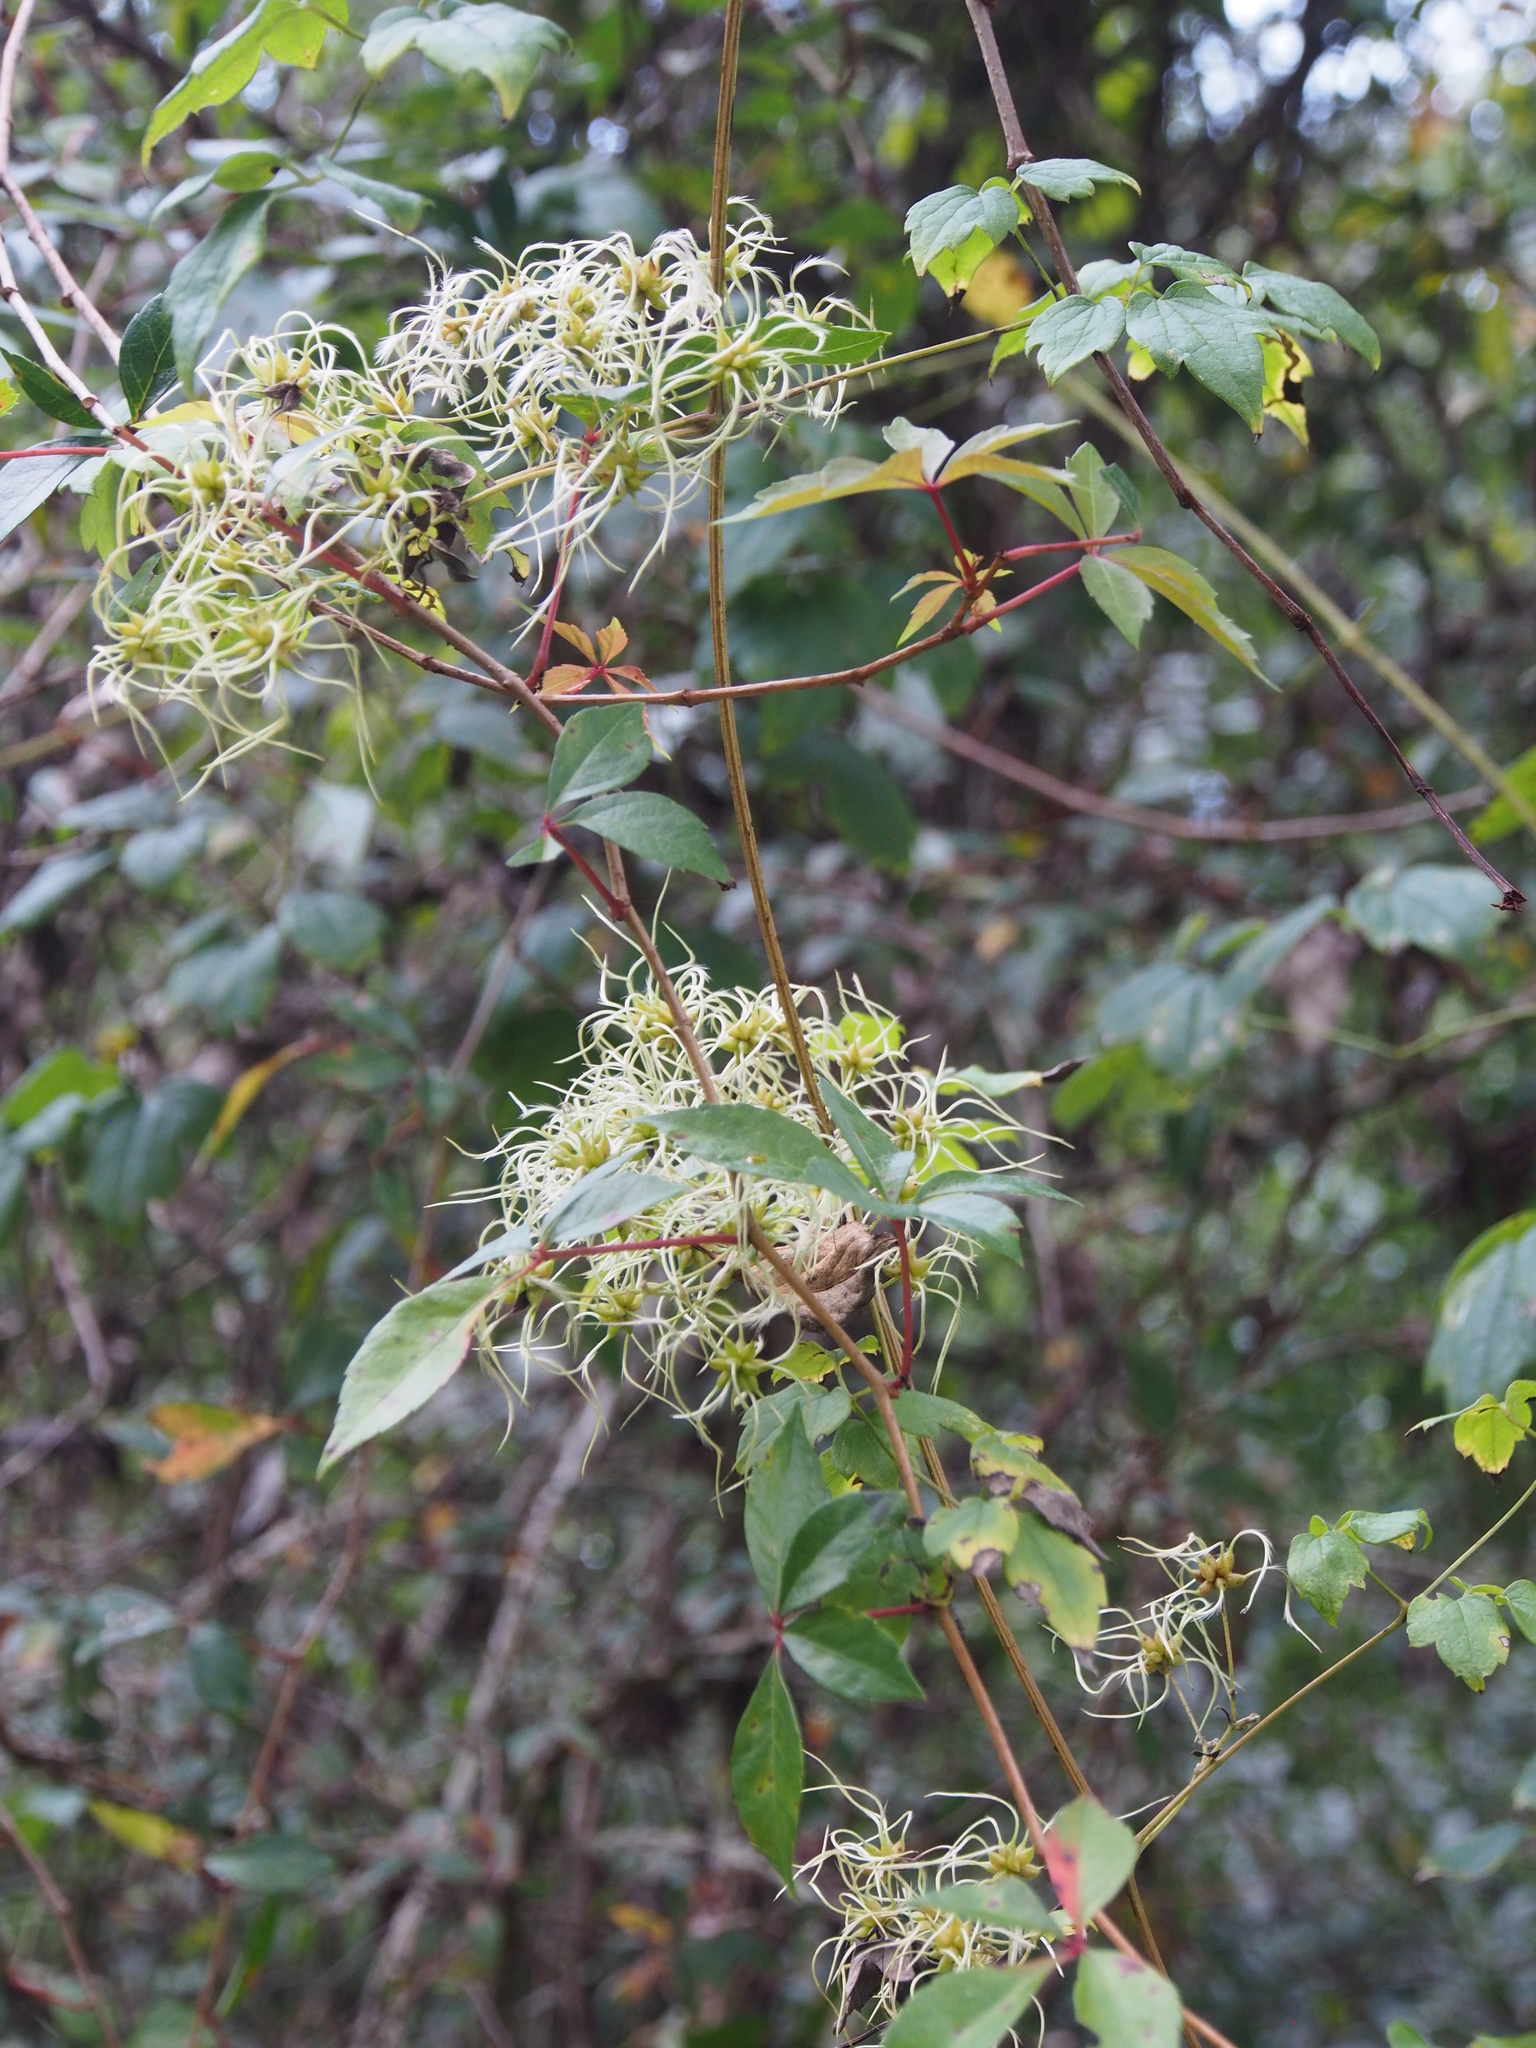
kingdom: Plantae
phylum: Tracheophyta
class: Magnoliopsida
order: Ranunculales
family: Ranunculaceae
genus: Clematis
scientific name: Clematis catesbyana
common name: Virgin's bower
